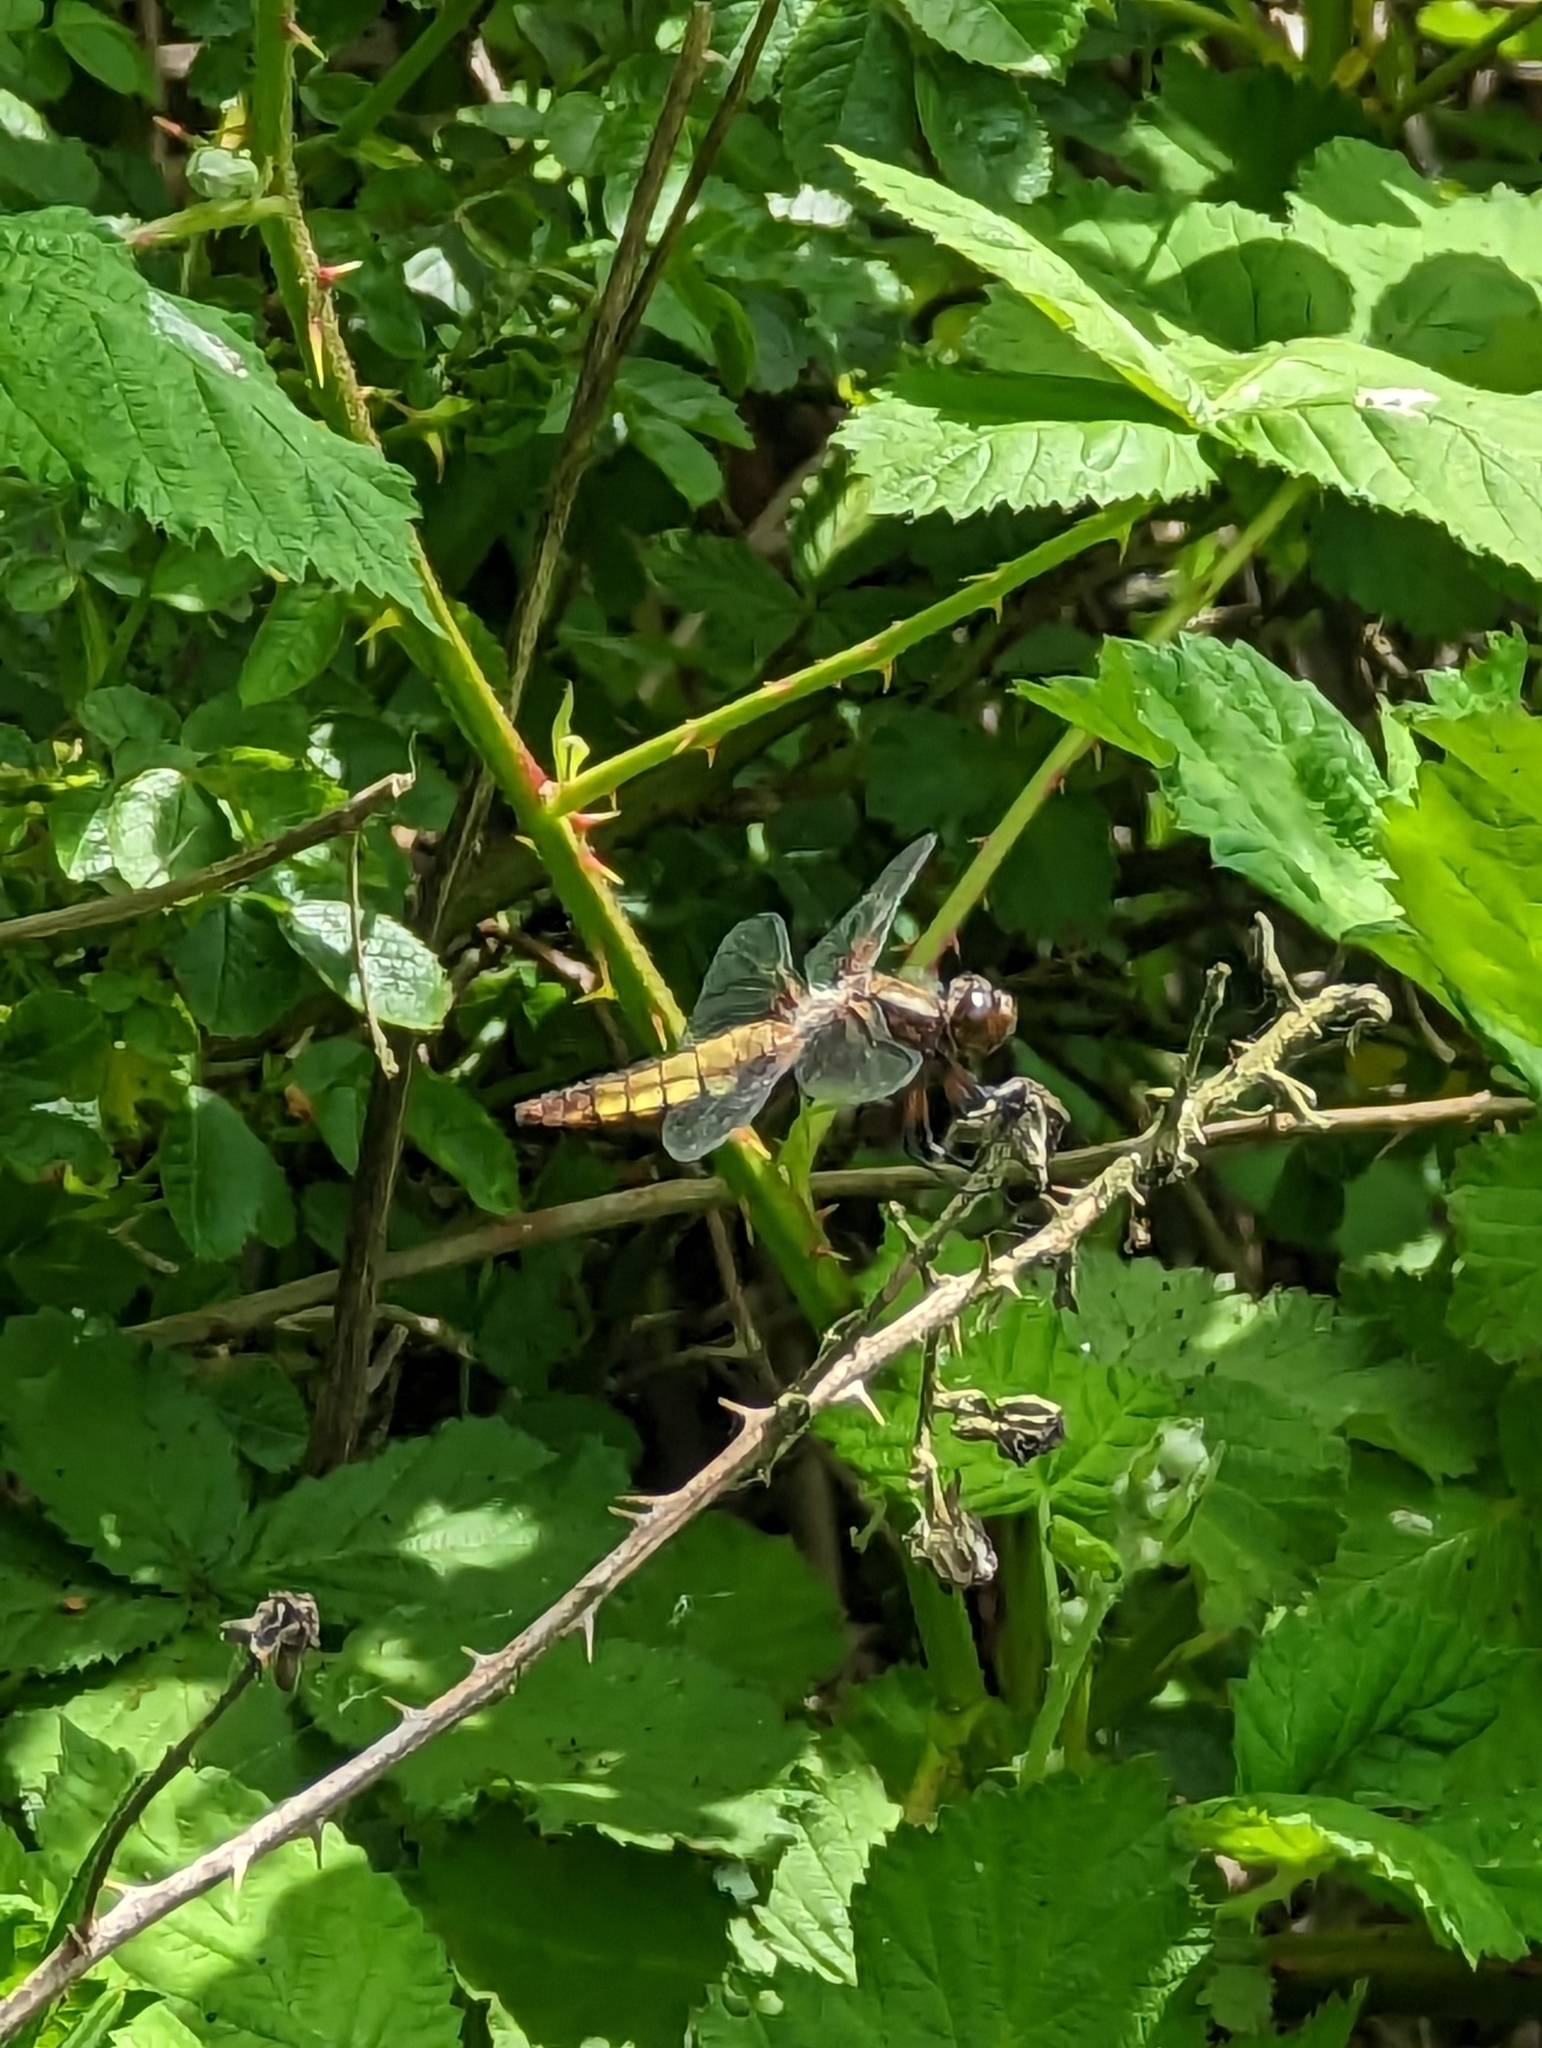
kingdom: Animalia
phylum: Arthropoda
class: Insecta
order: Odonata
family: Libellulidae
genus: Libellula
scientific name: Libellula depressa
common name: Broad-bodied chaser
